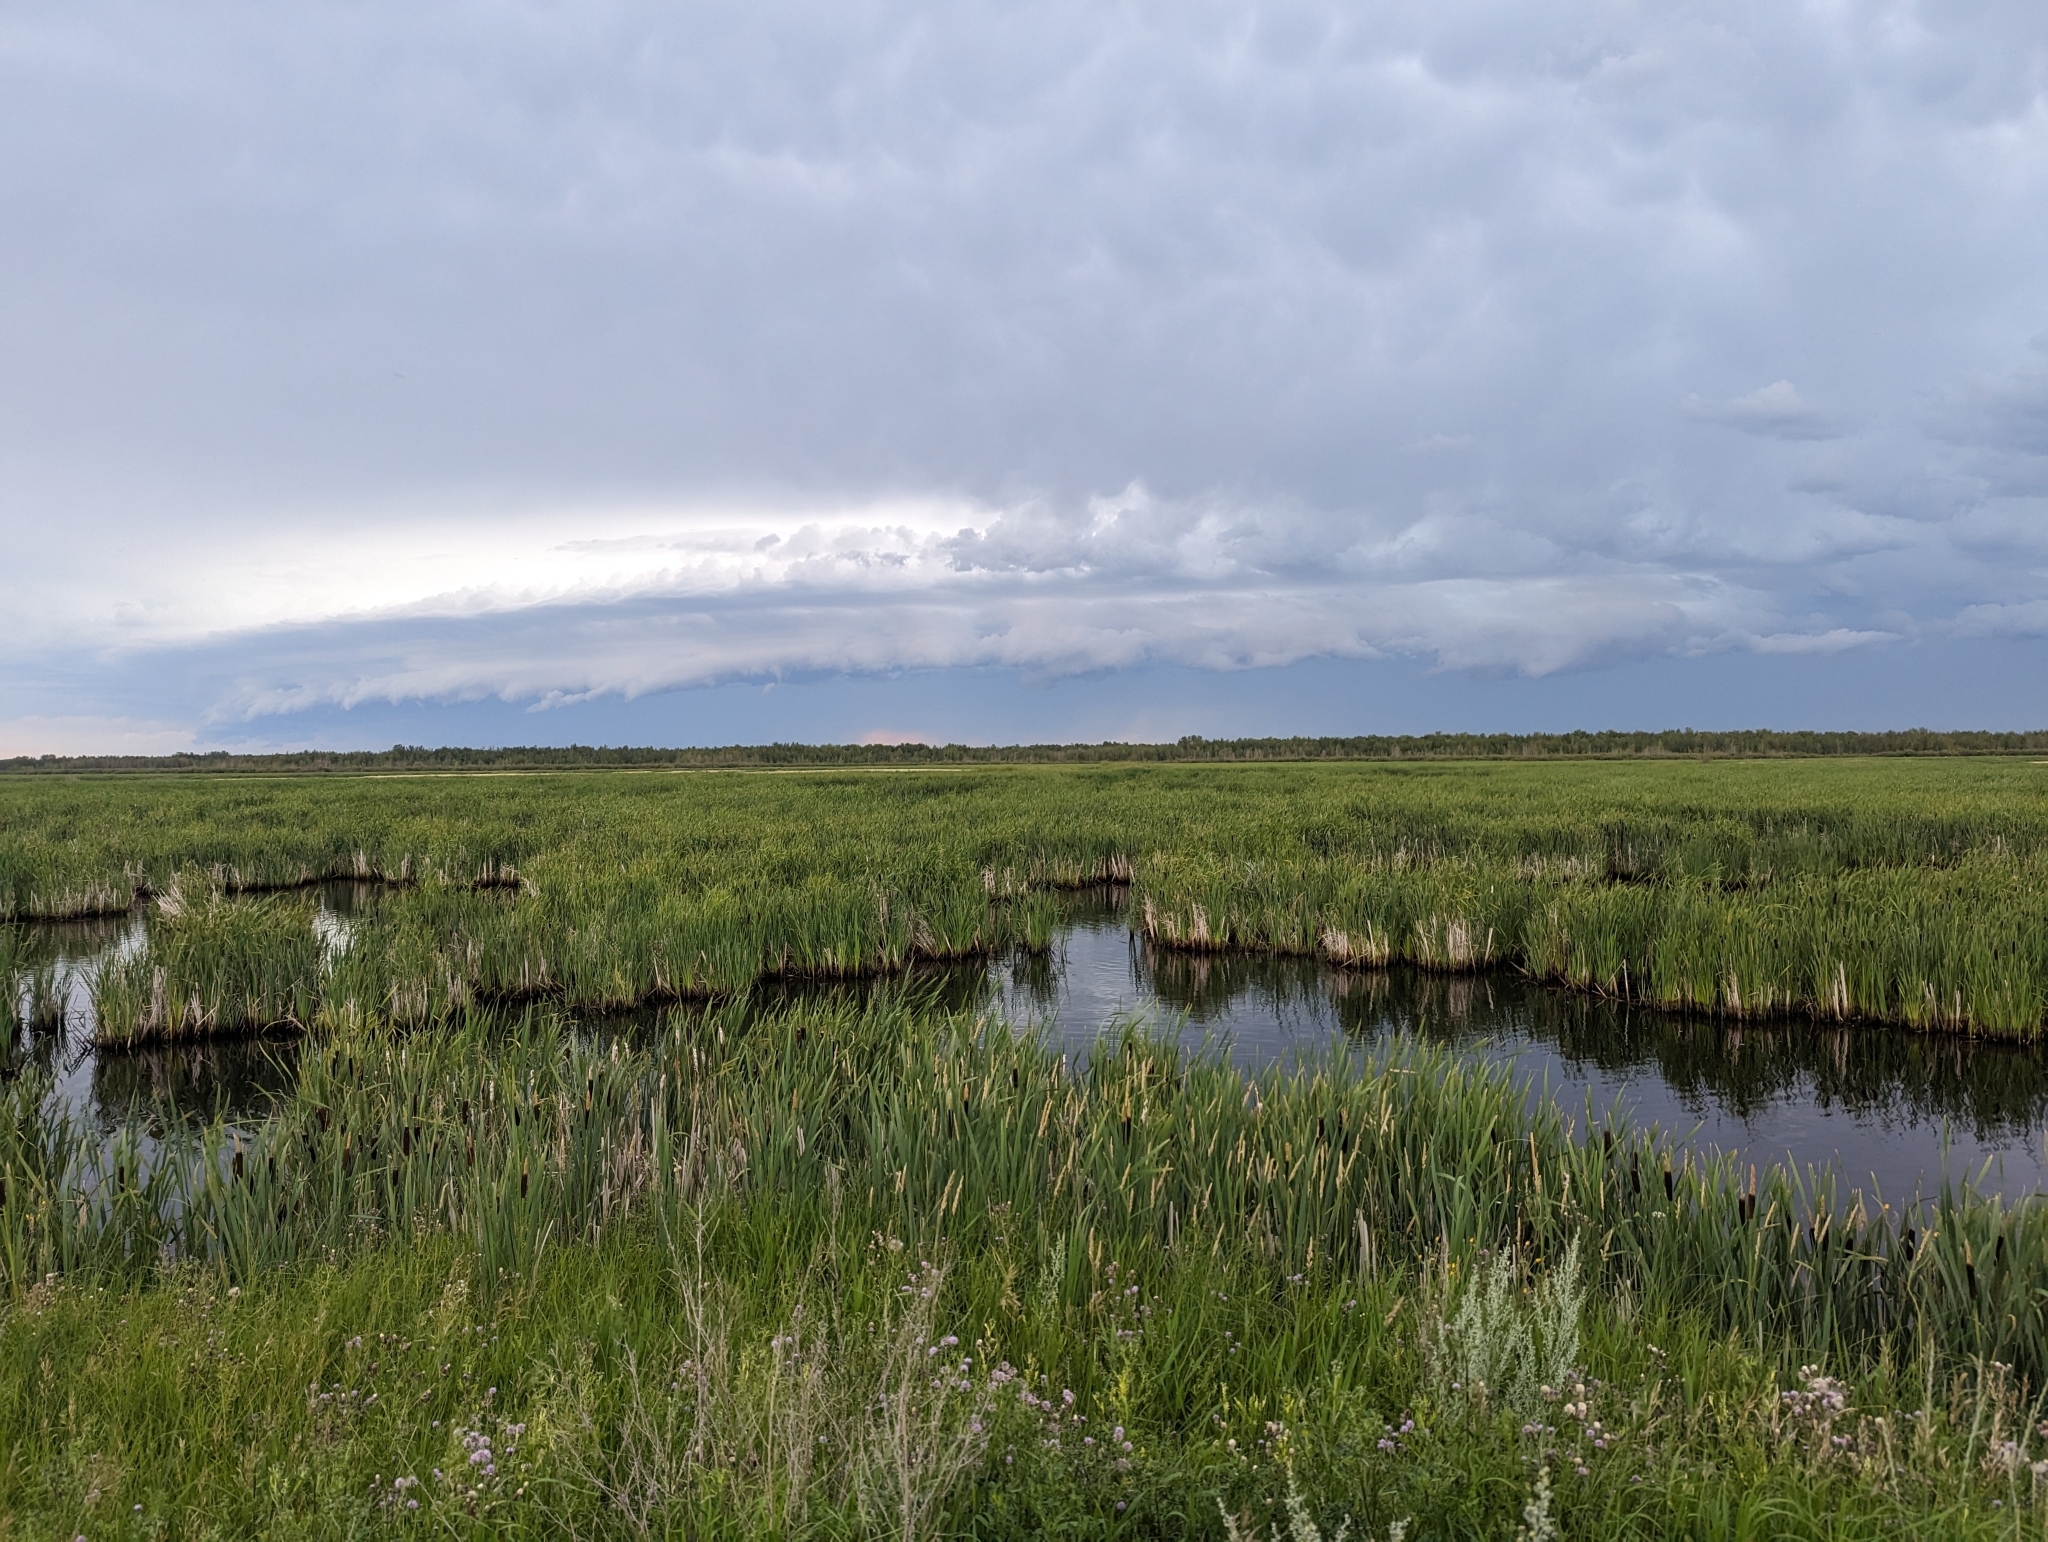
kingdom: Plantae
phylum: Tracheophyta
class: Liliopsida
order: Poales
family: Typhaceae
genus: Typha
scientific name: Typha latifolia
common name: Broadleaf cattail
